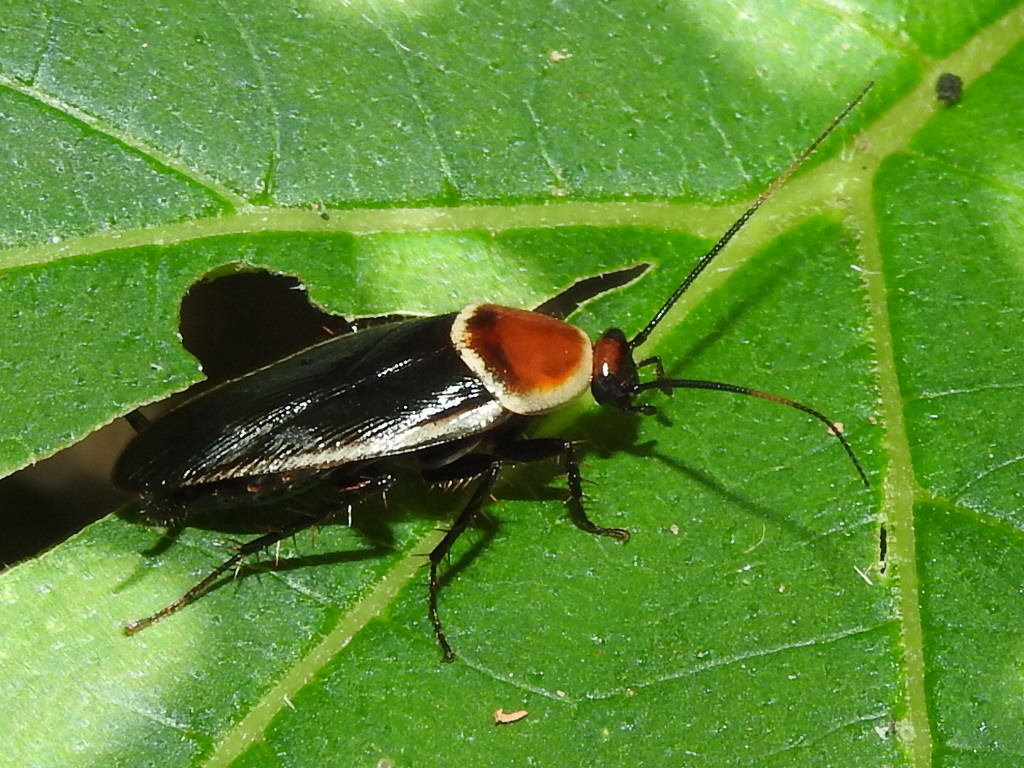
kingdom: Animalia
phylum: Arthropoda
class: Insecta
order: Blattodea
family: Ectobiidae
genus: Pseudomops
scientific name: Pseudomops septentrionalis
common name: Pale-bordered field cockroach
